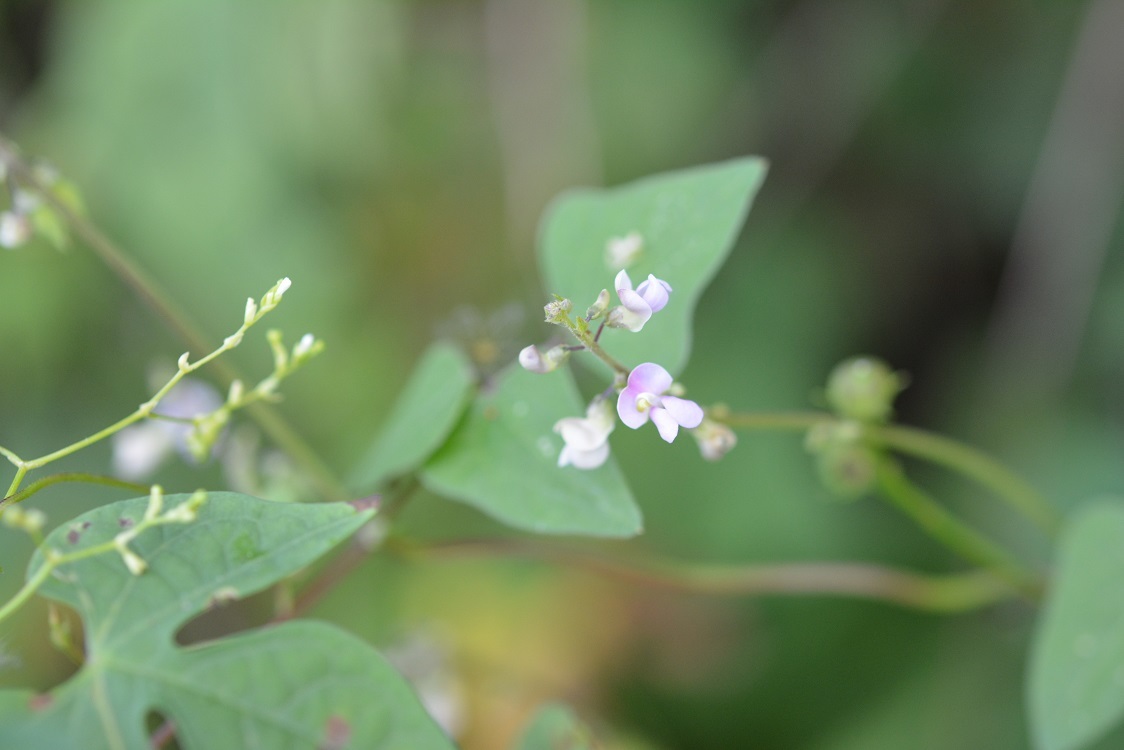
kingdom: Plantae
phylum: Tracheophyta
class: Magnoliopsida
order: Fabales
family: Fabaceae
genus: Phaseolus
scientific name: Phaseolus microcarpus
